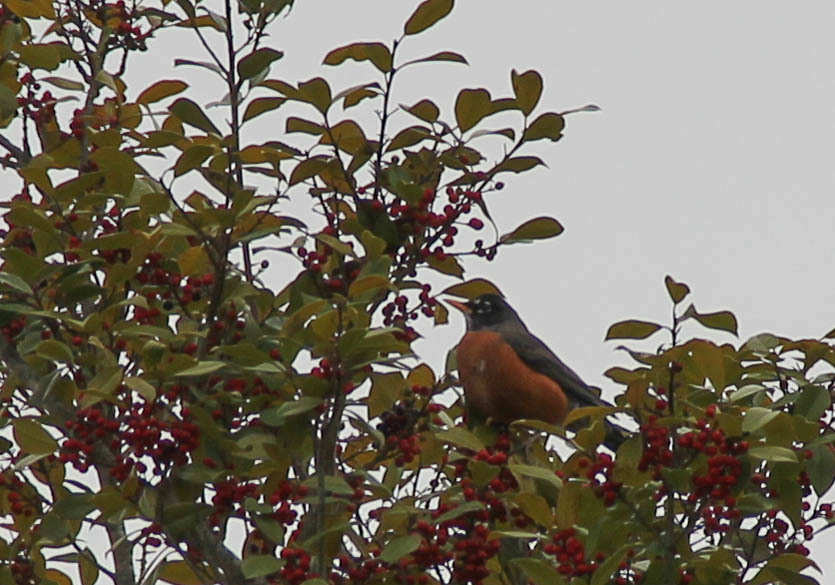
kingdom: Animalia
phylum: Chordata
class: Aves
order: Passeriformes
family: Turdidae
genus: Turdus
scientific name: Turdus migratorius
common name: American robin
